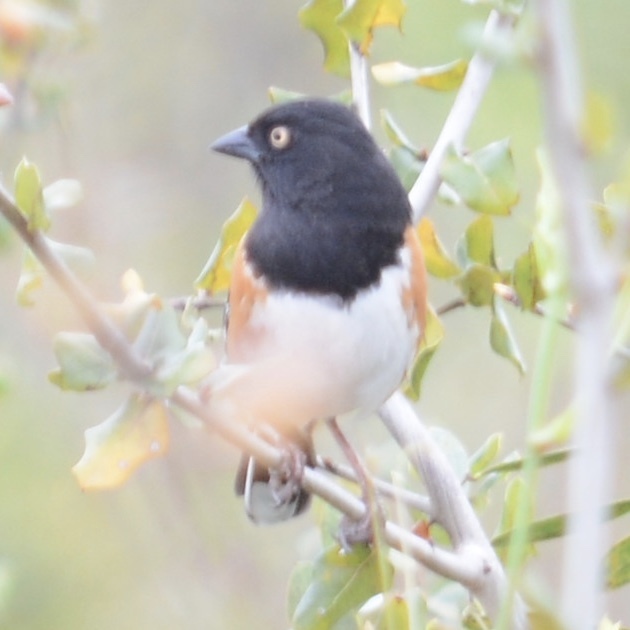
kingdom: Animalia
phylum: Chordata
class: Aves
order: Passeriformes
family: Passerellidae
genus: Pipilo
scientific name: Pipilo erythrophthalmus
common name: Eastern towhee
